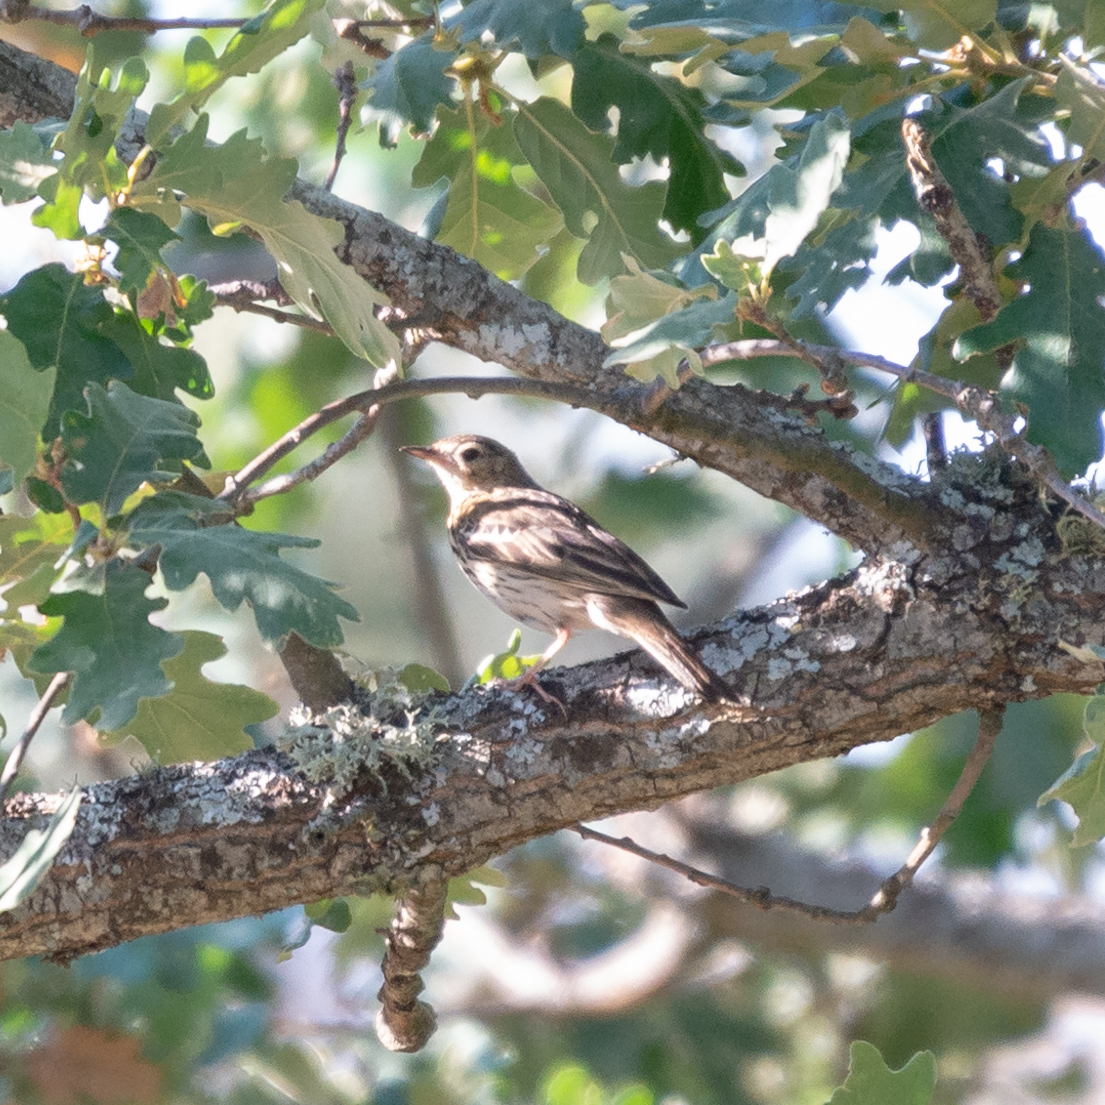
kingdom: Animalia
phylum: Chordata
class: Aves
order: Passeriformes
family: Motacillidae
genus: Anthus
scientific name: Anthus trivialis
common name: Tree pipit
